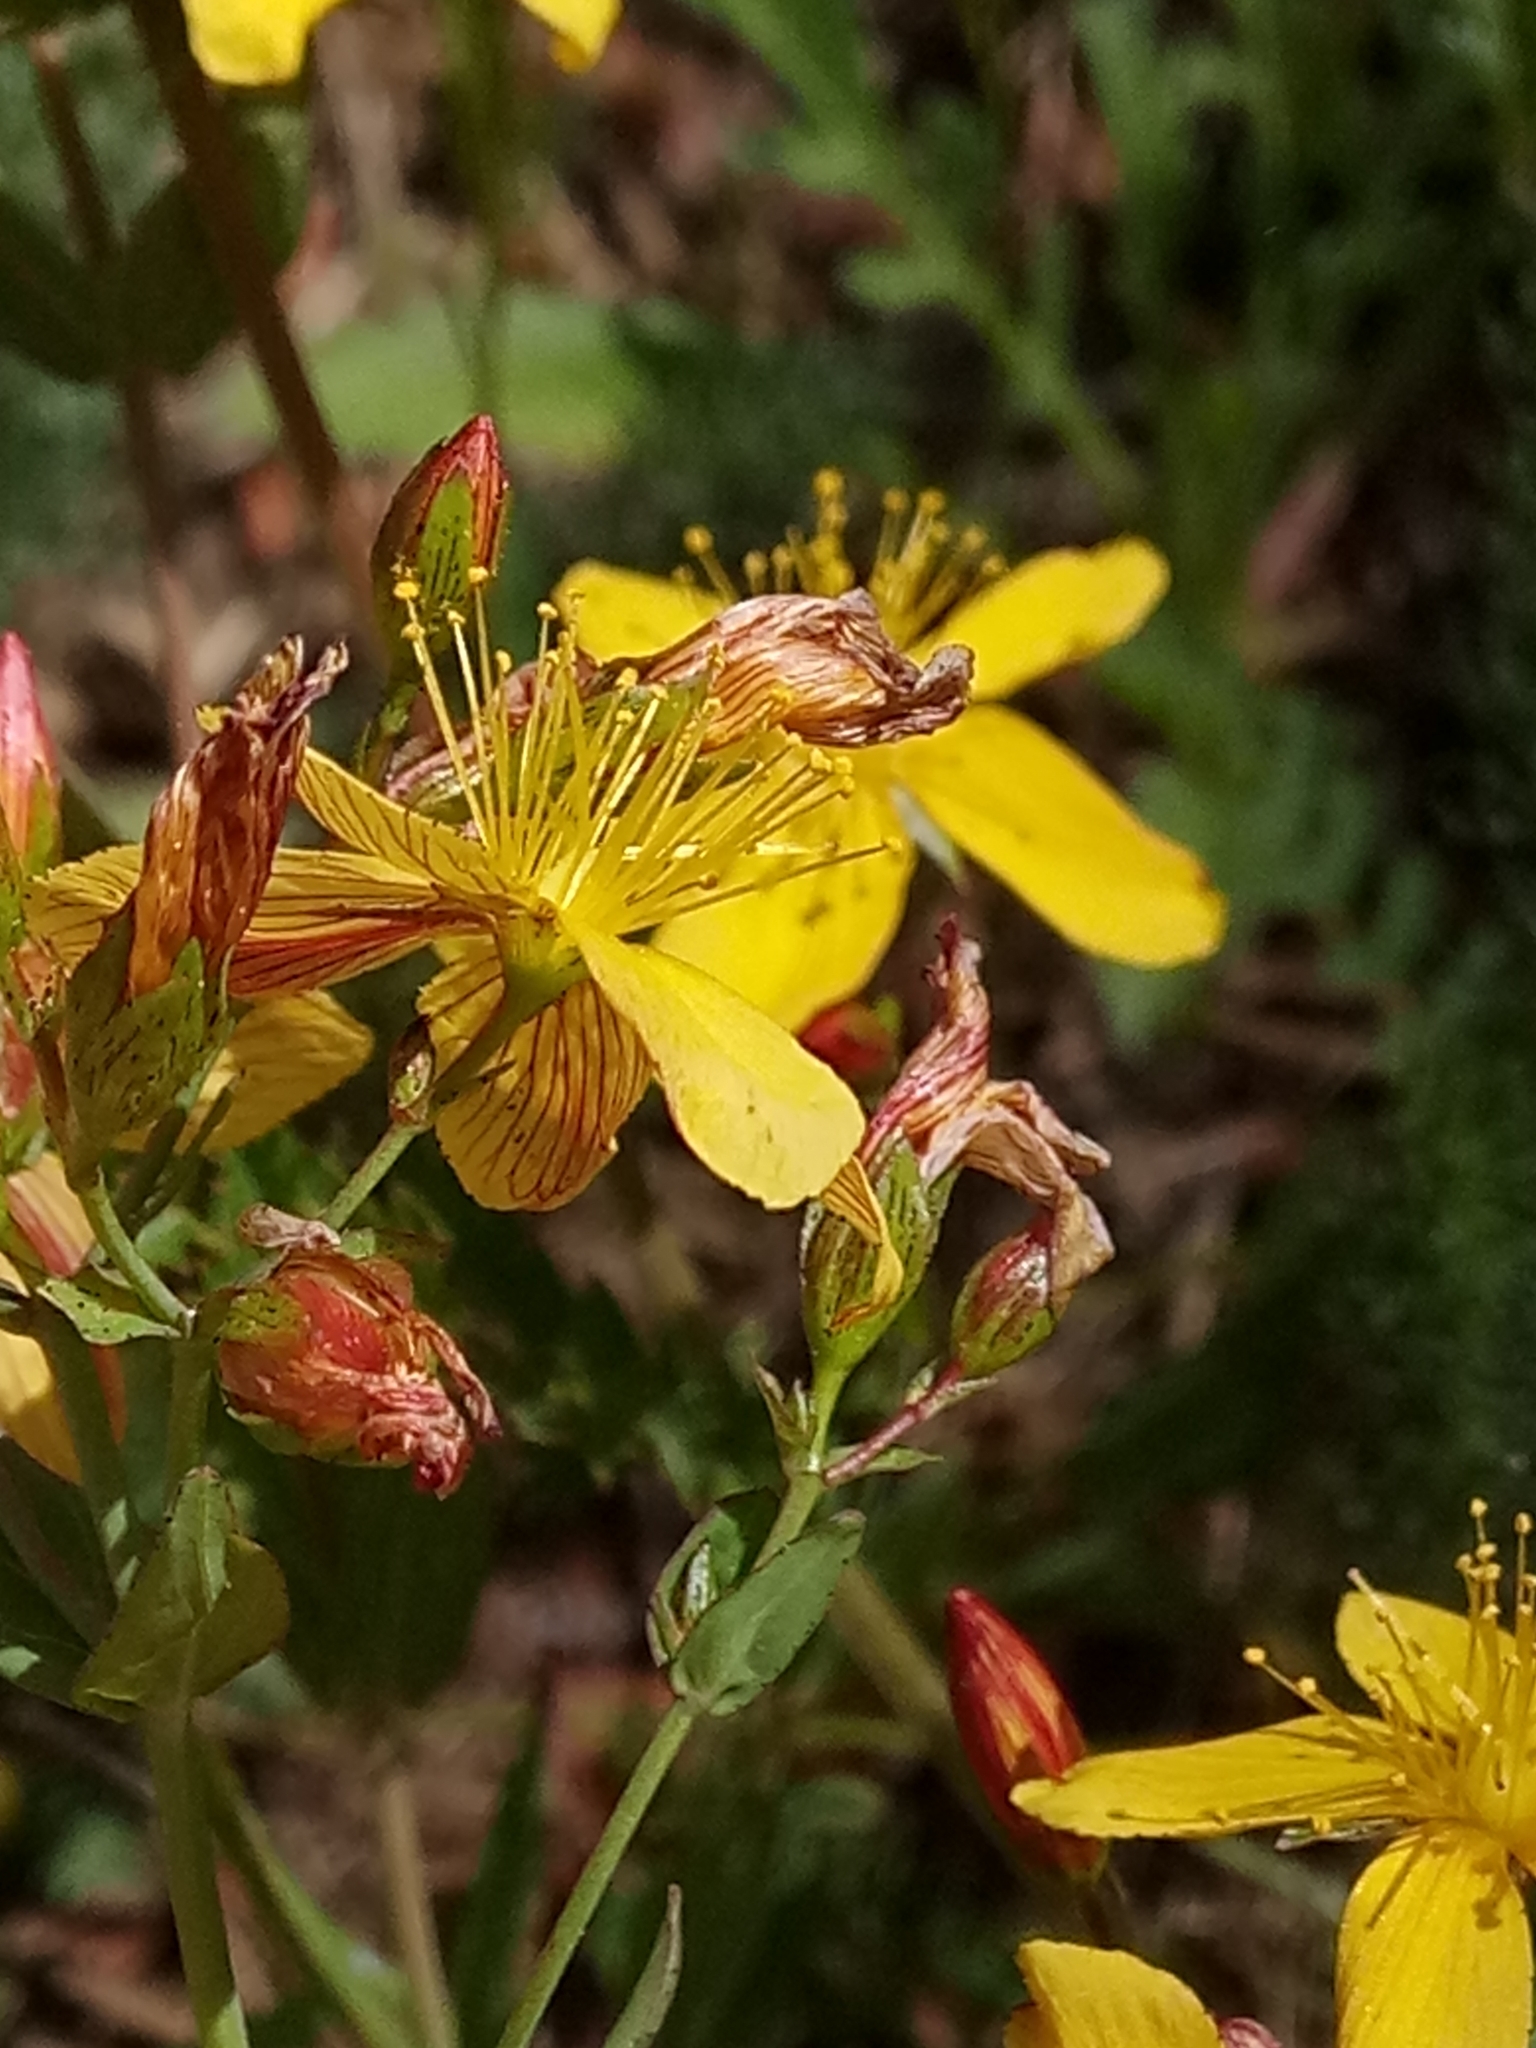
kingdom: Plantae
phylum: Tracheophyta
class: Magnoliopsida
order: Malpighiales
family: Hypericaceae
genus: Hypericum
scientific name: Hypericum australe
